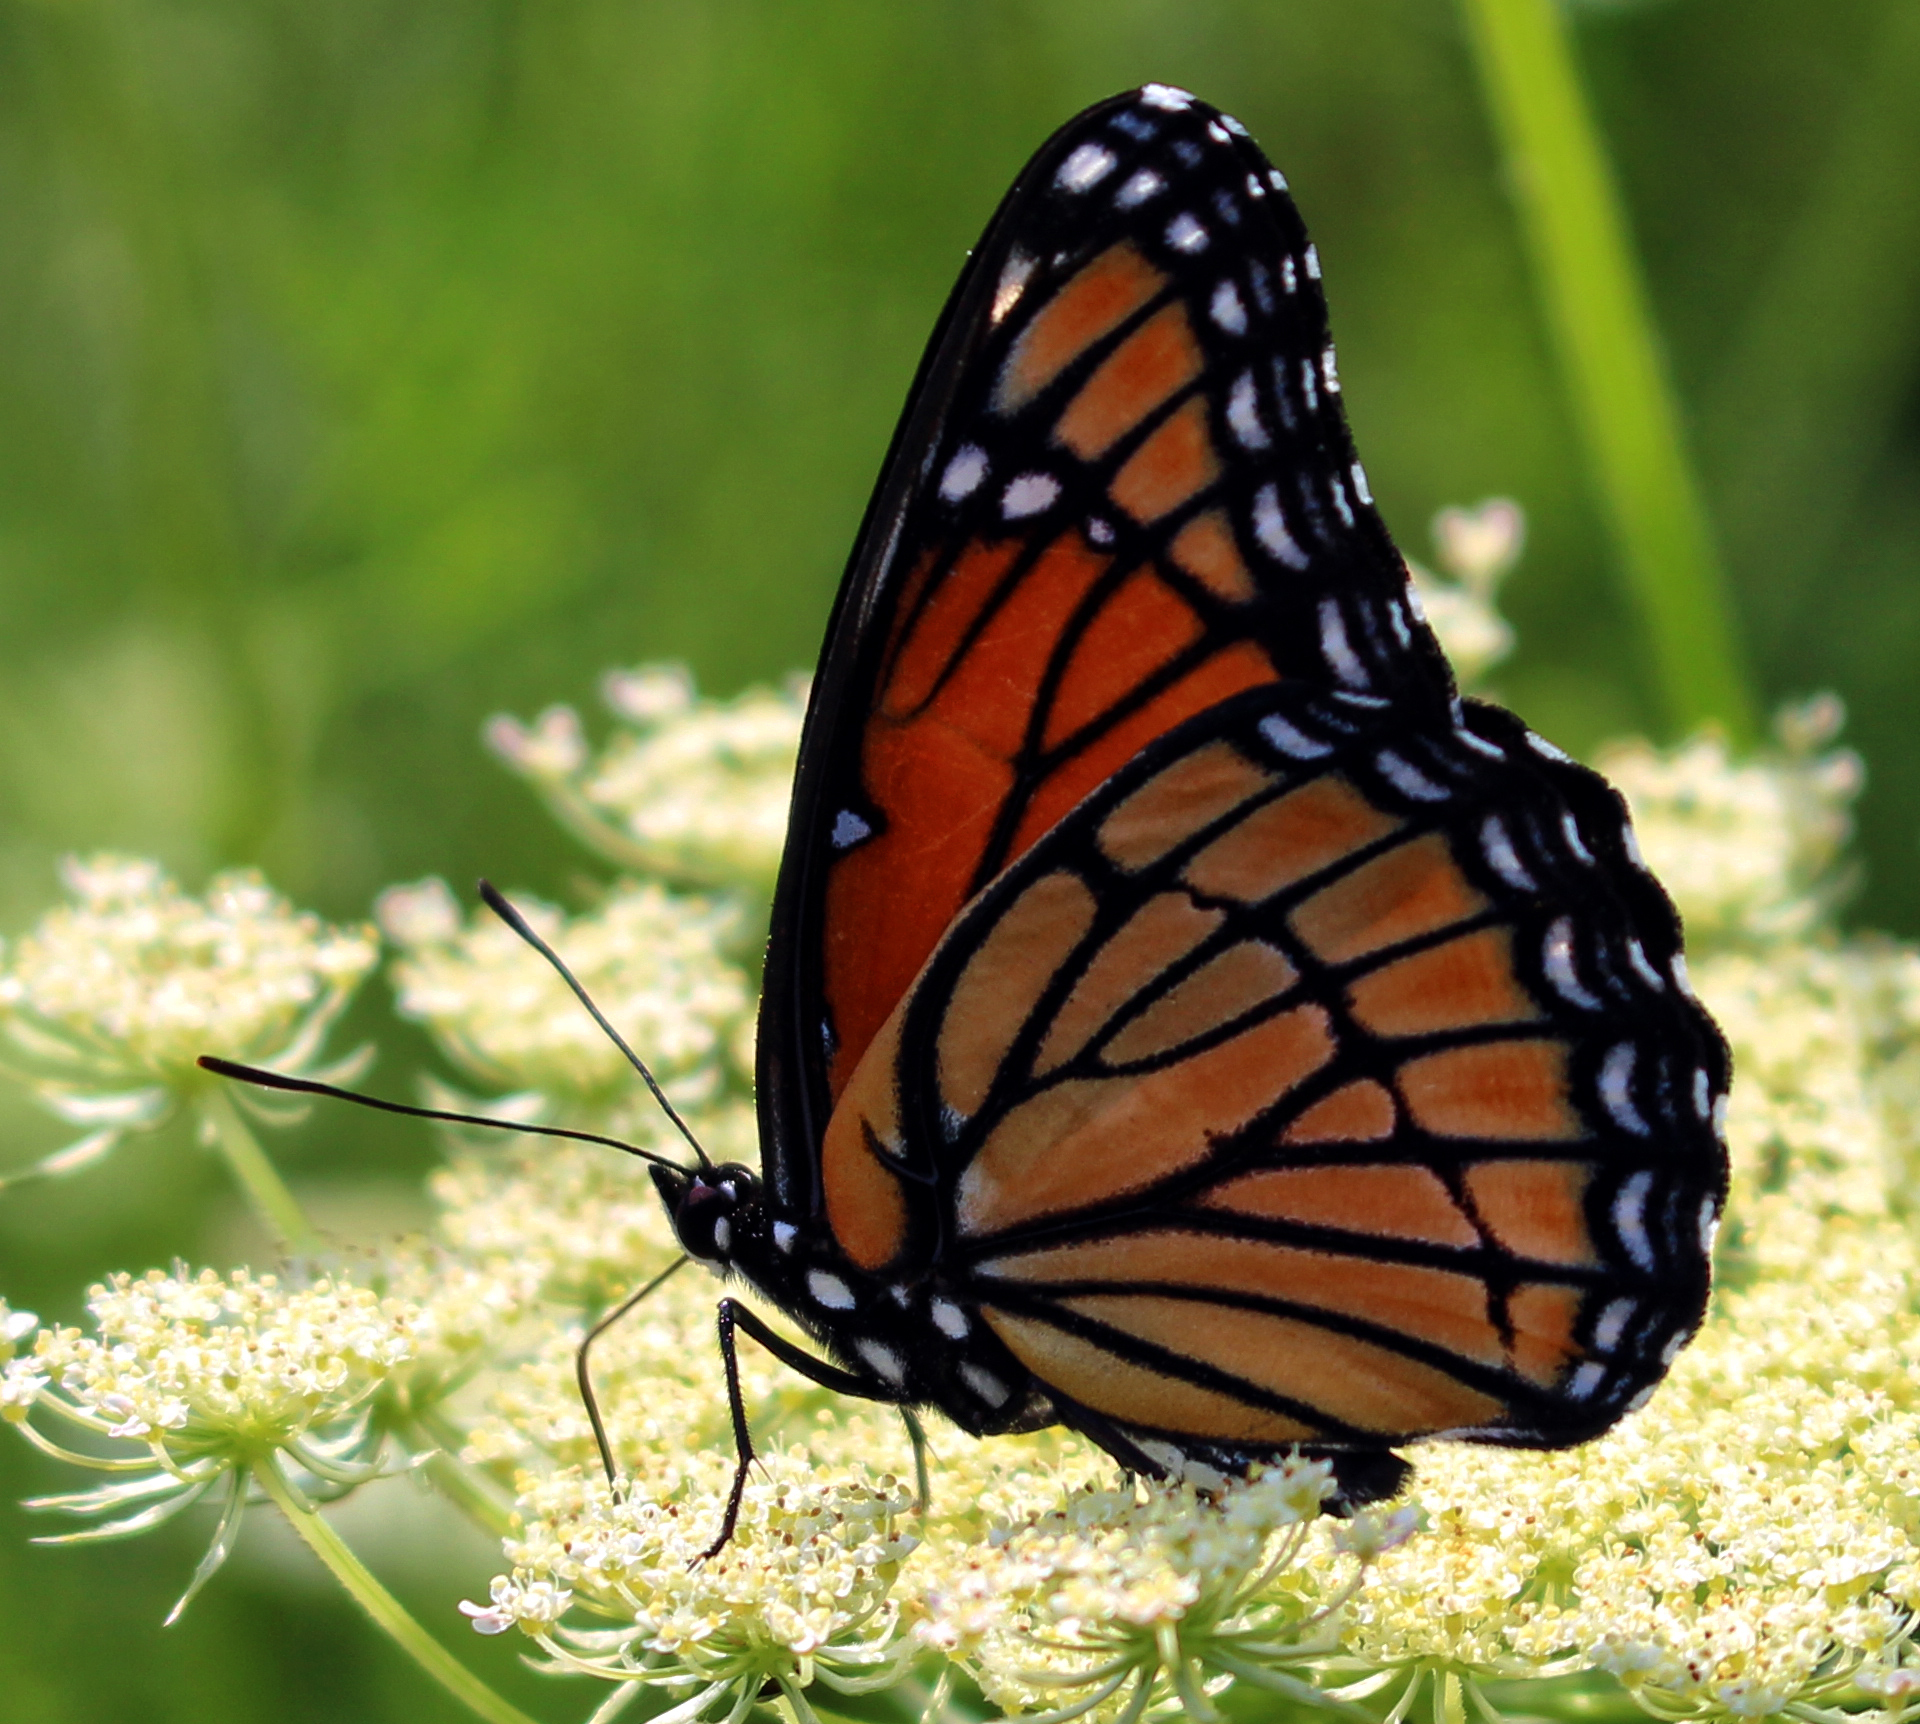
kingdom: Animalia
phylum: Arthropoda
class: Insecta
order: Lepidoptera
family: Nymphalidae
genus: Limenitis
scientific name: Limenitis archippus
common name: Viceroy
